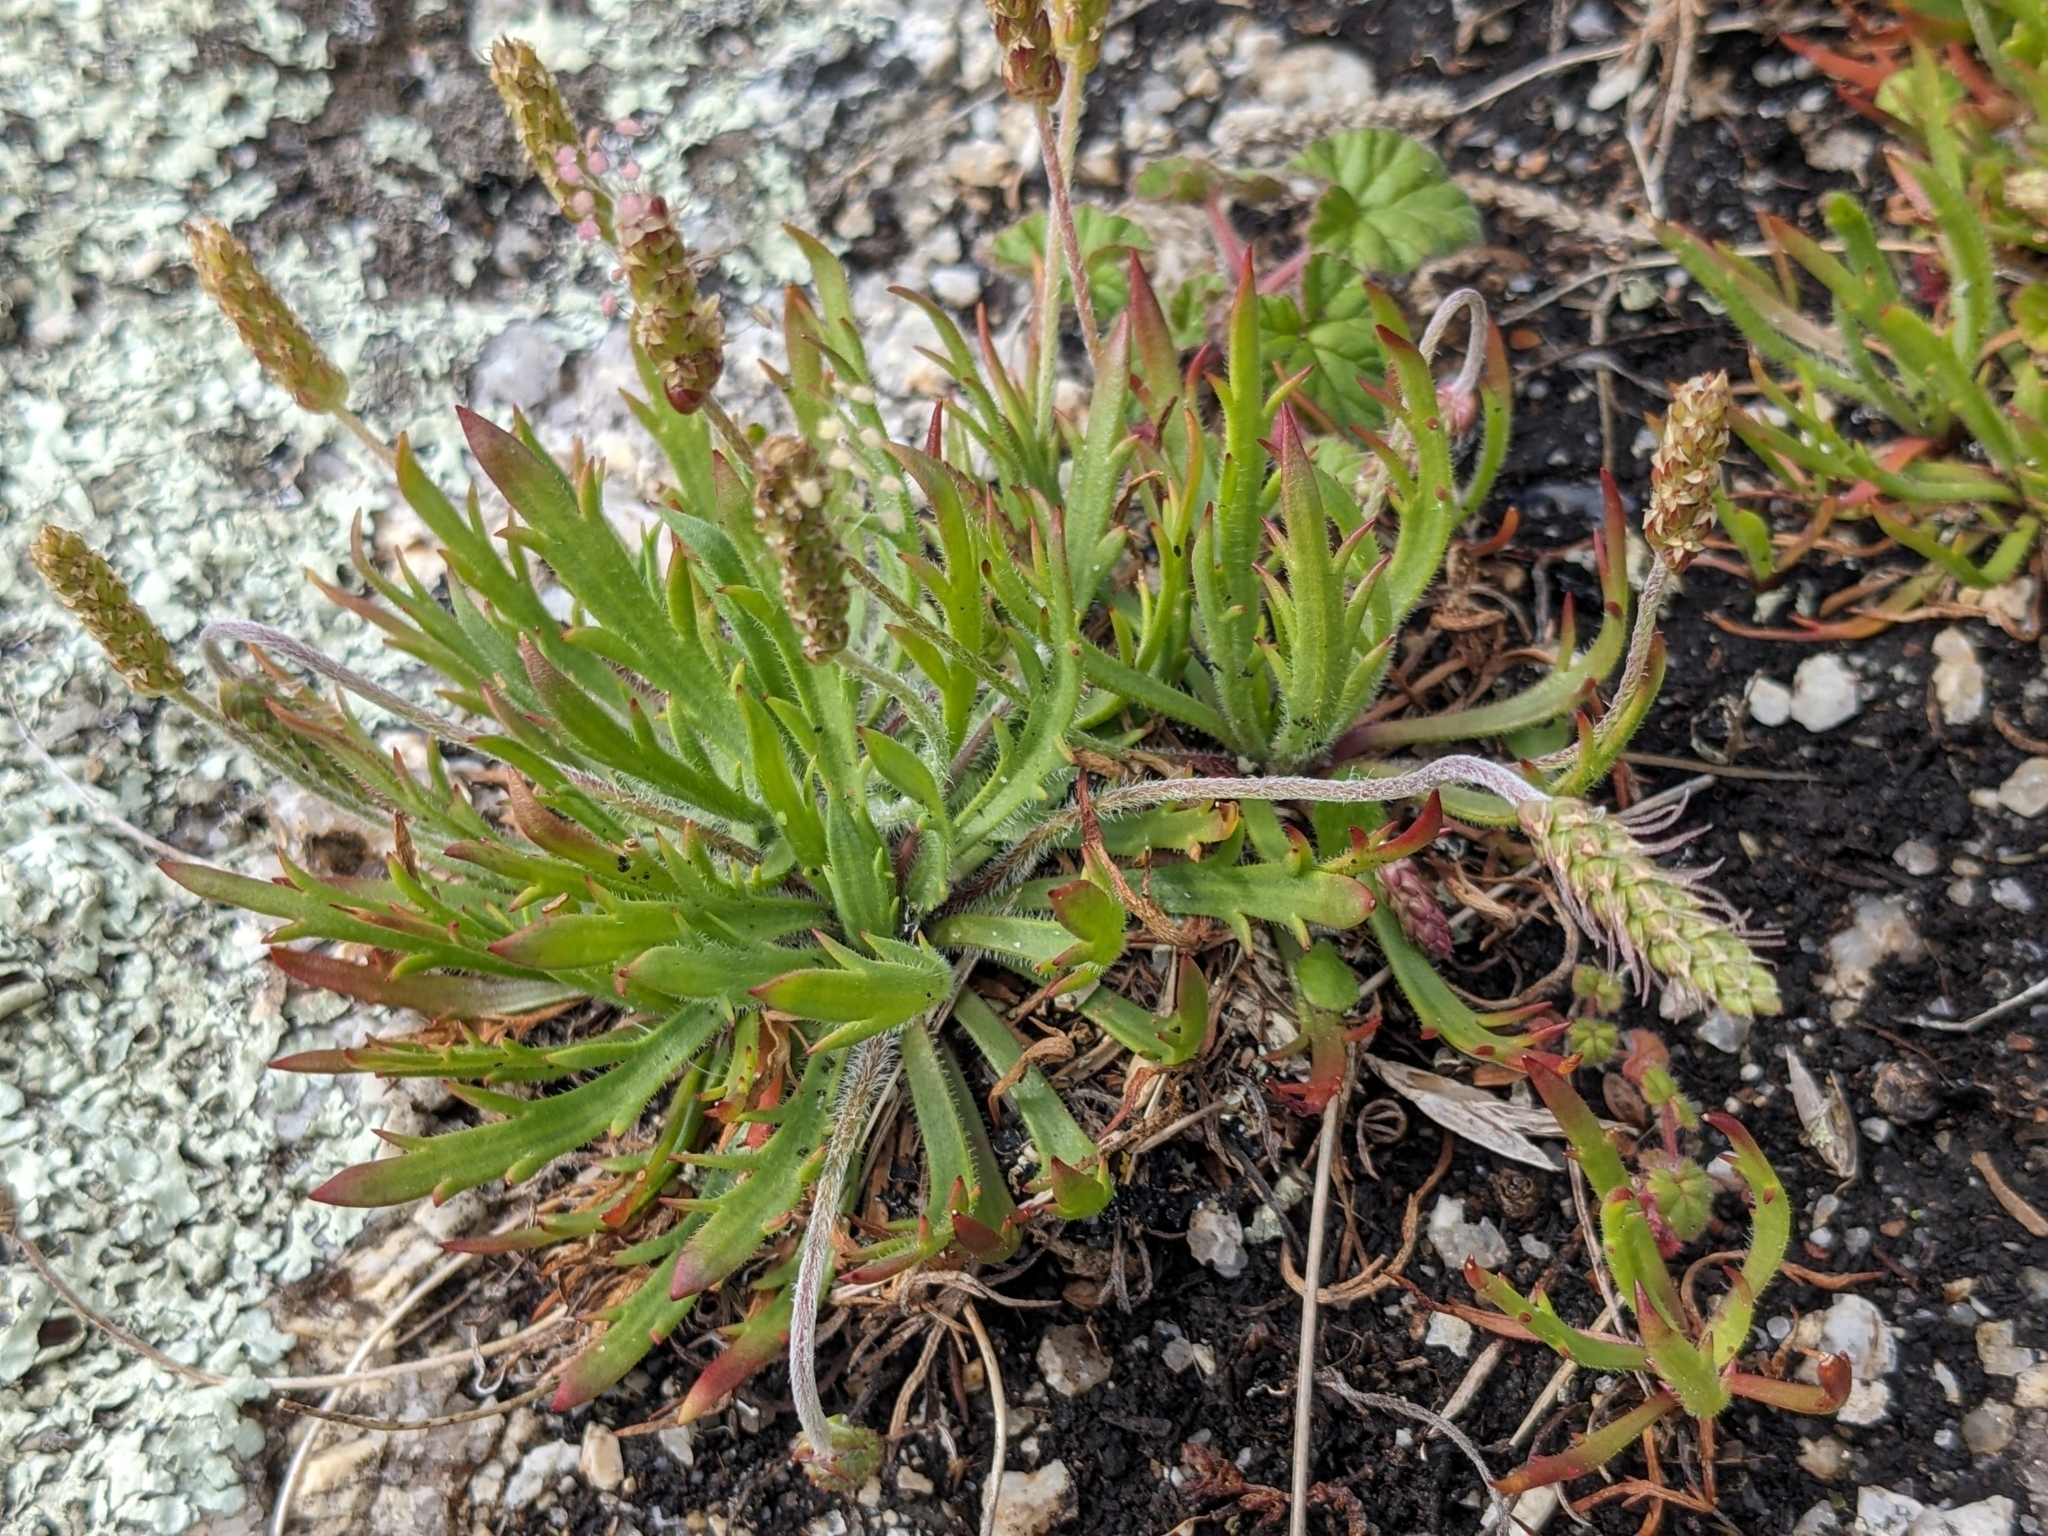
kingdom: Plantae
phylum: Tracheophyta
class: Magnoliopsida
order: Lamiales
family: Plantaginaceae
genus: Plantago
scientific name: Plantago coronopus
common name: Buck's-horn plantain
